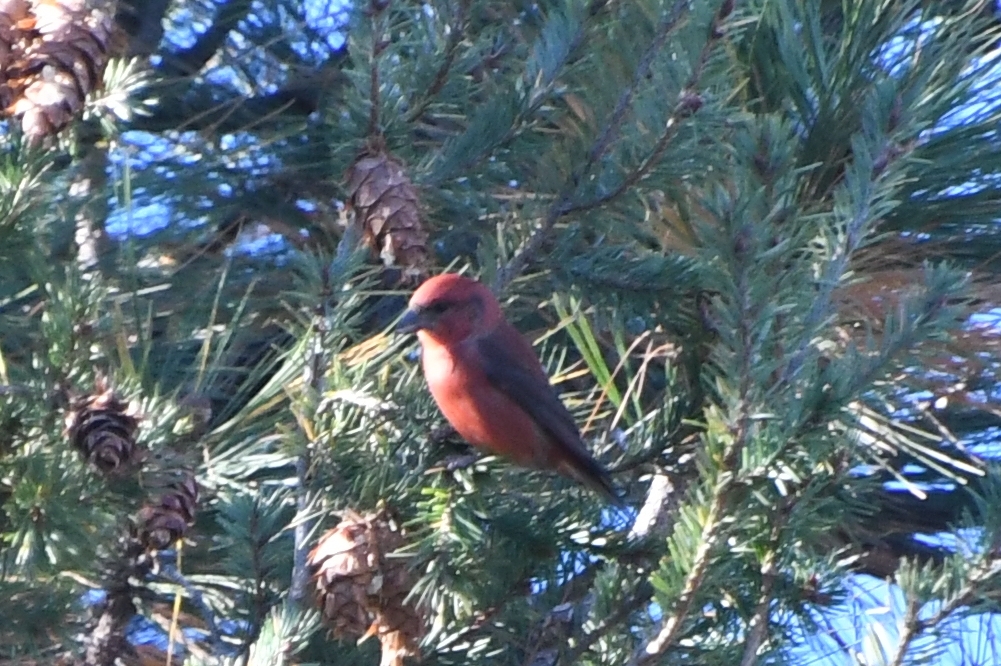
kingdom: Animalia
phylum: Chordata
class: Aves
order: Passeriformes
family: Fringillidae
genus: Loxia
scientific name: Loxia curvirostra
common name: Red crossbill
